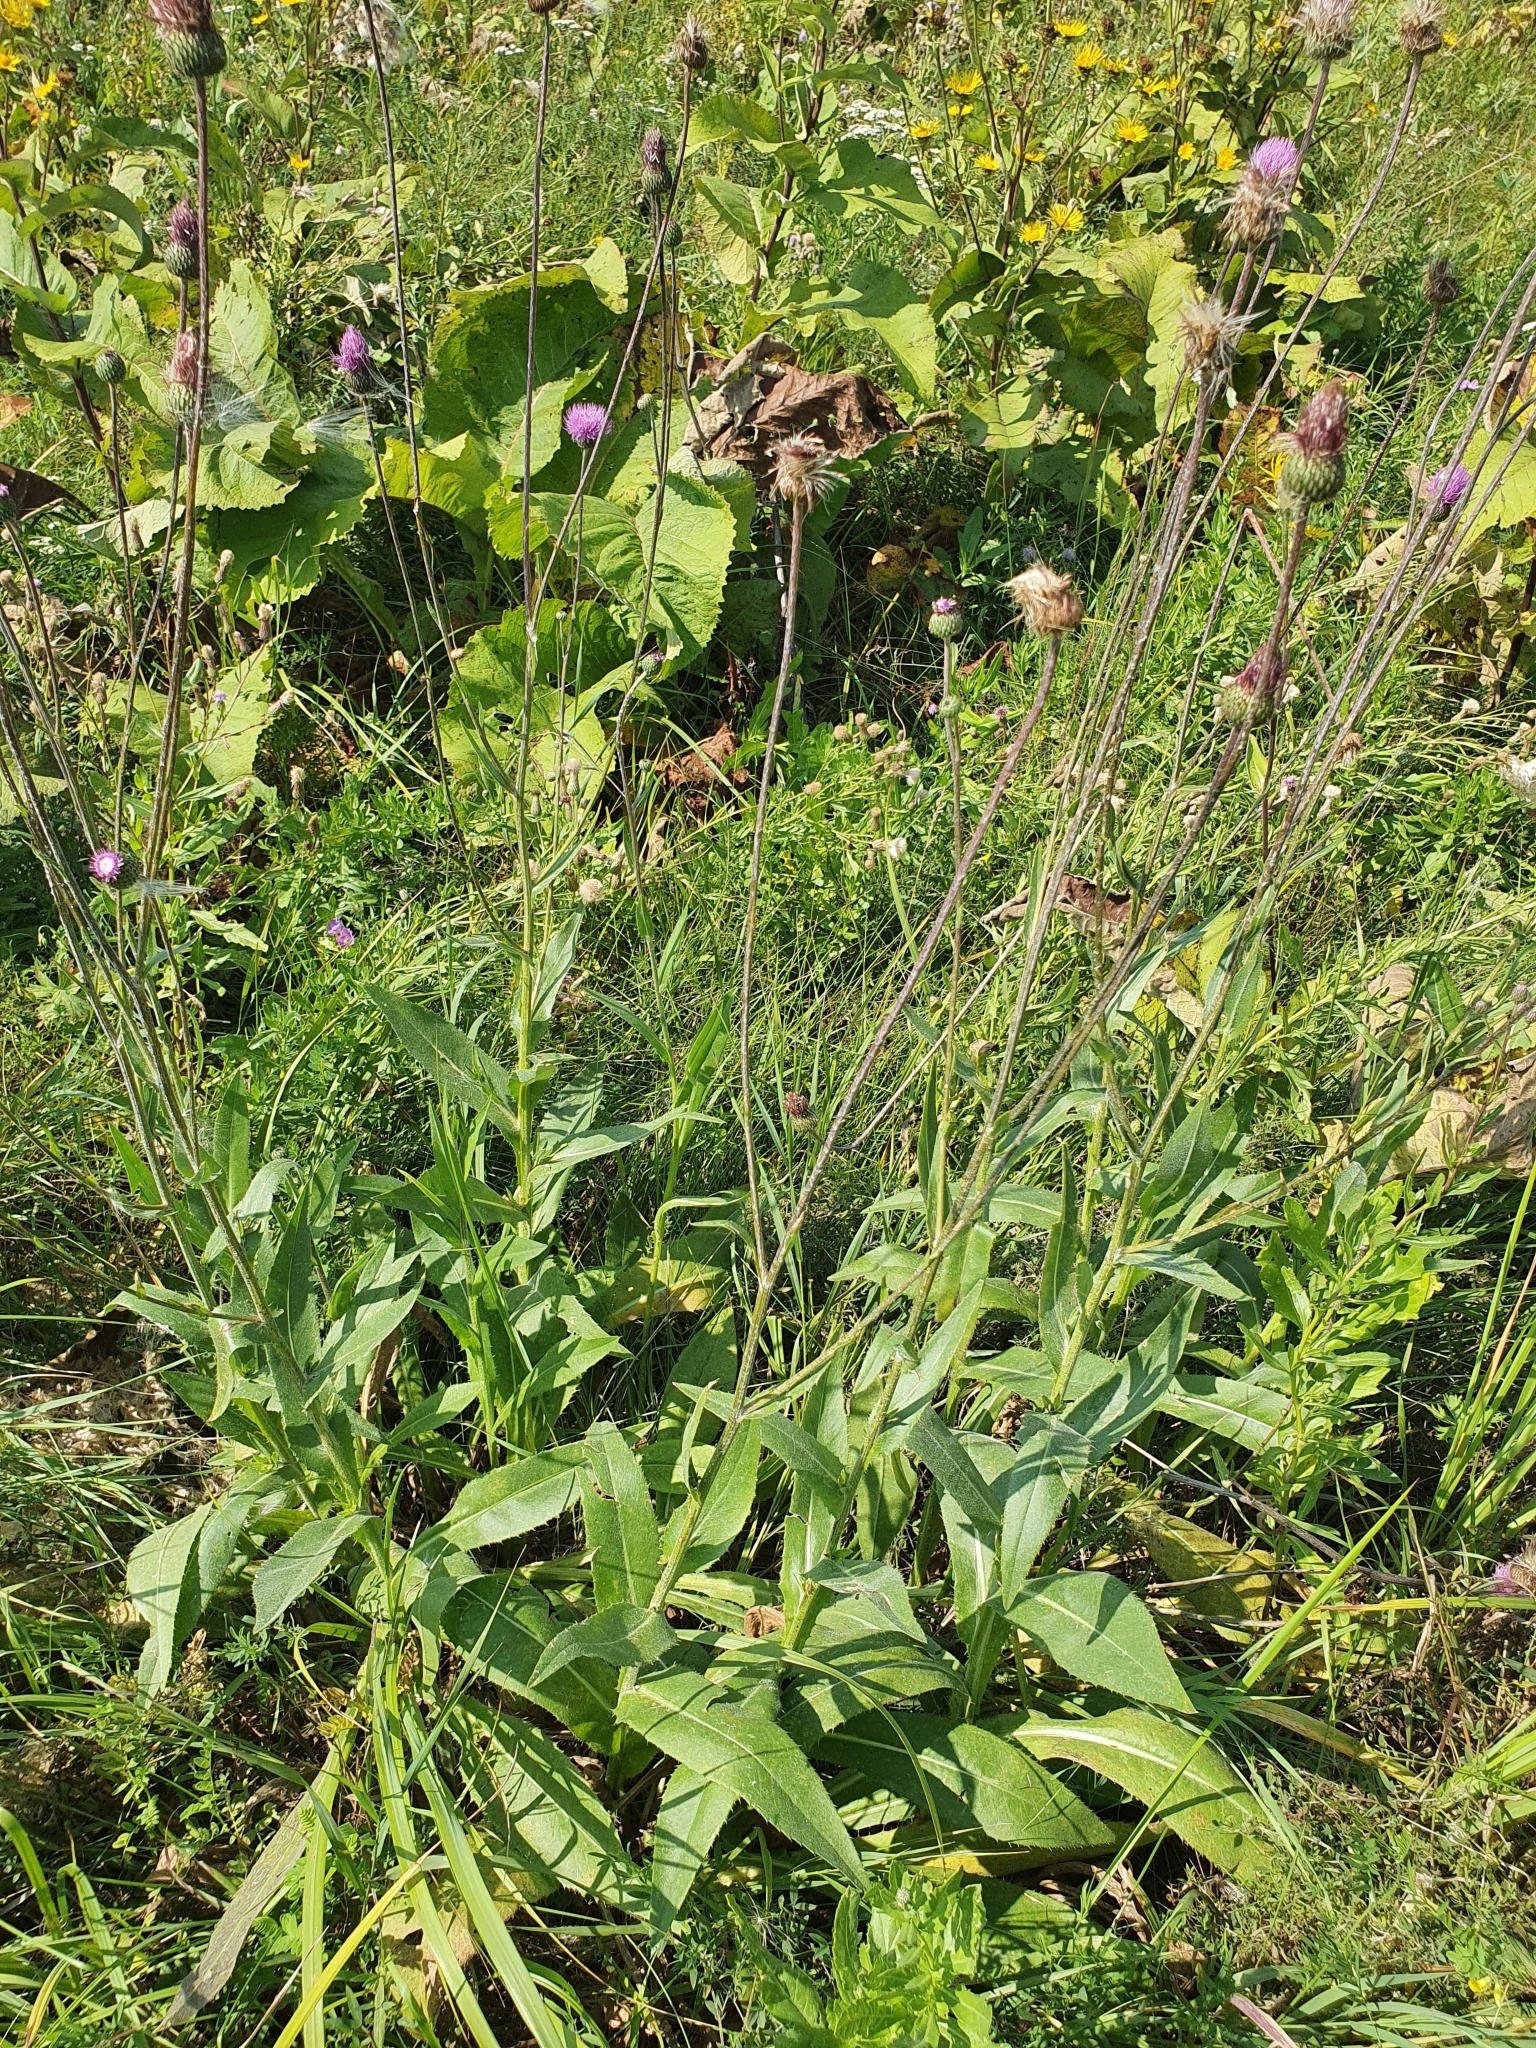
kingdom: Plantae
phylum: Tracheophyta
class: Magnoliopsida
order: Asterales
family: Asteraceae
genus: Cirsium
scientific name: Cirsium canum
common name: Queen anne's thistle
